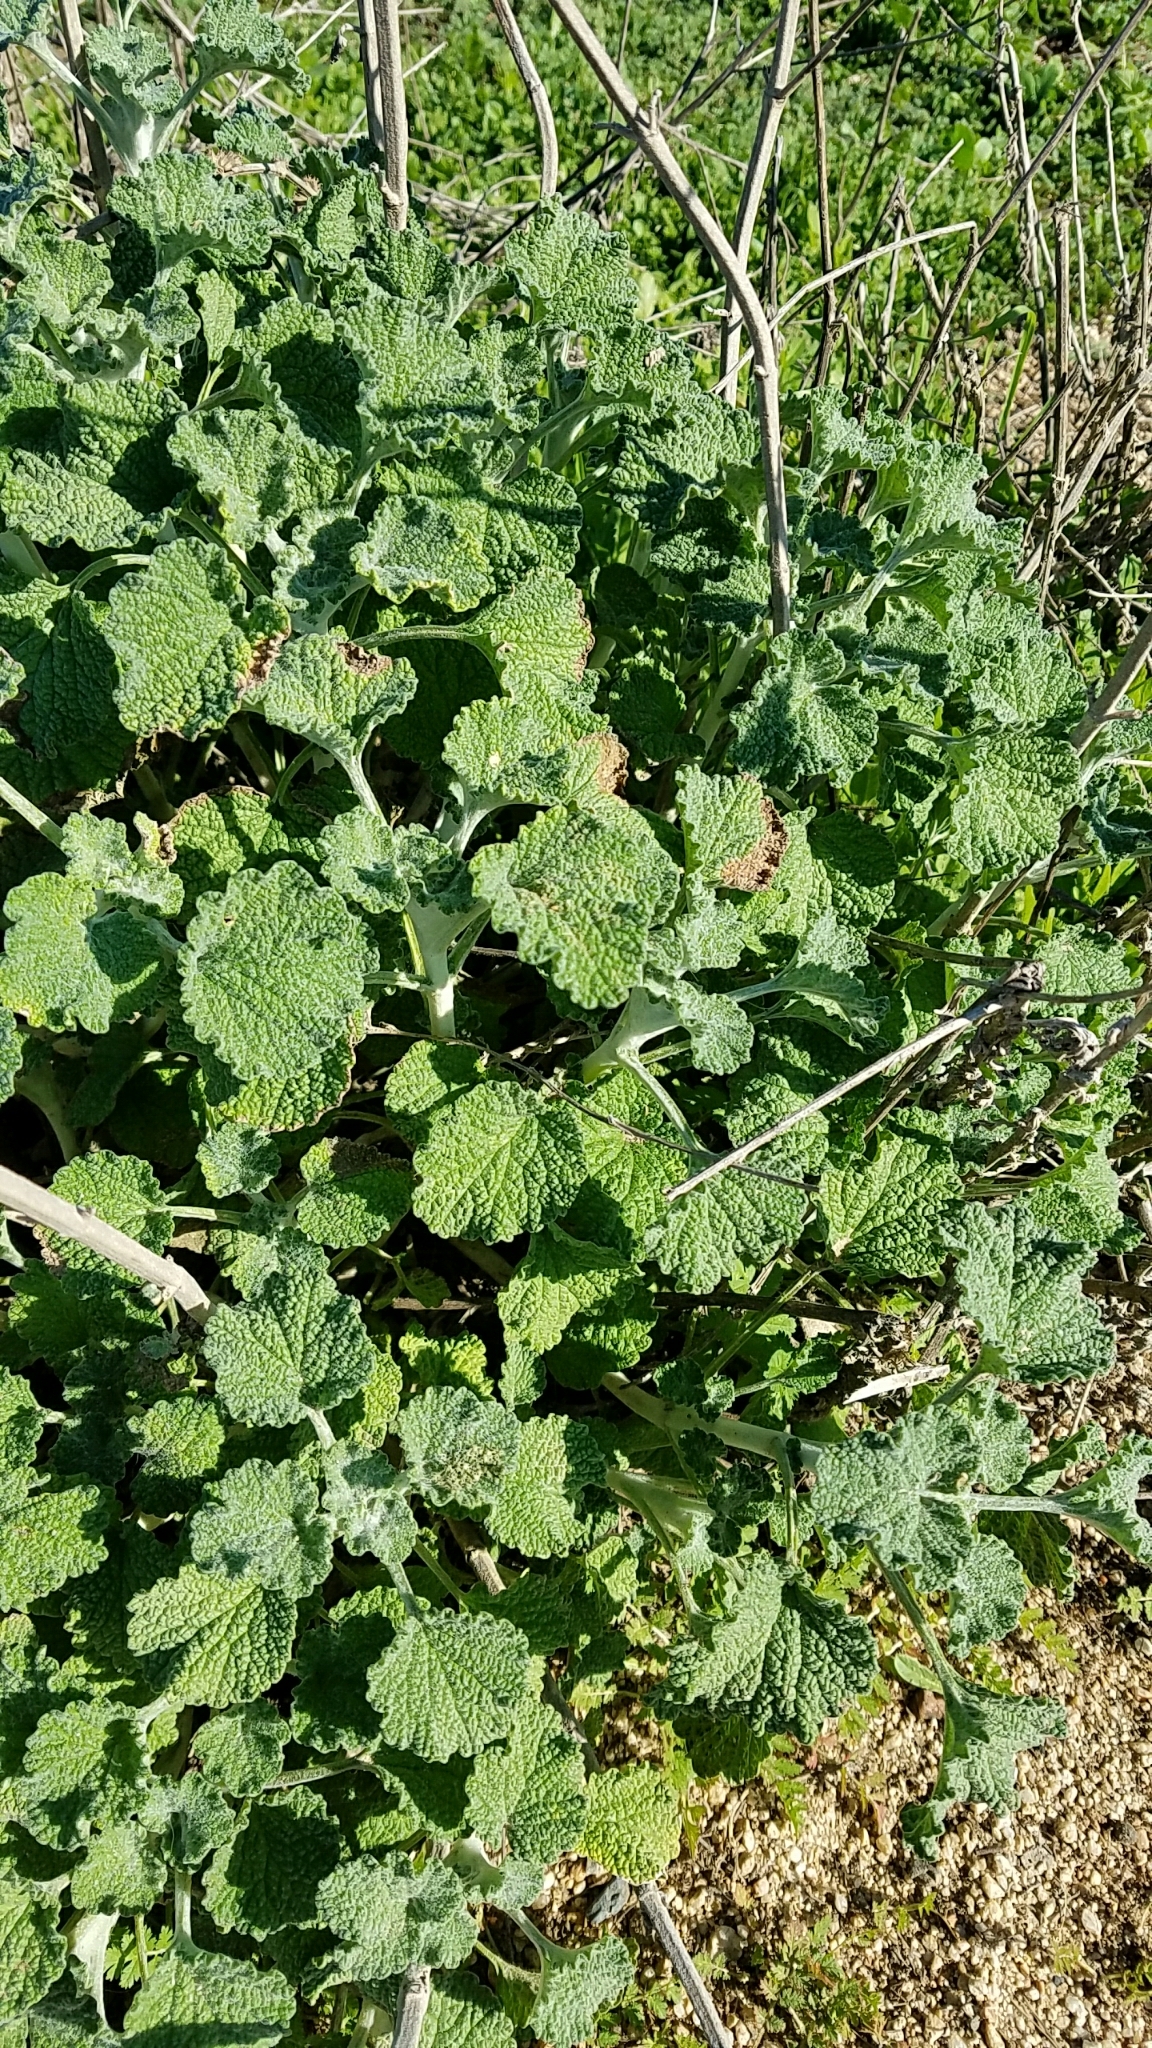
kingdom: Plantae
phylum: Tracheophyta
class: Magnoliopsida
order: Lamiales
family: Lamiaceae
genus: Marrubium
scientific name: Marrubium vulgare
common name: Horehound
